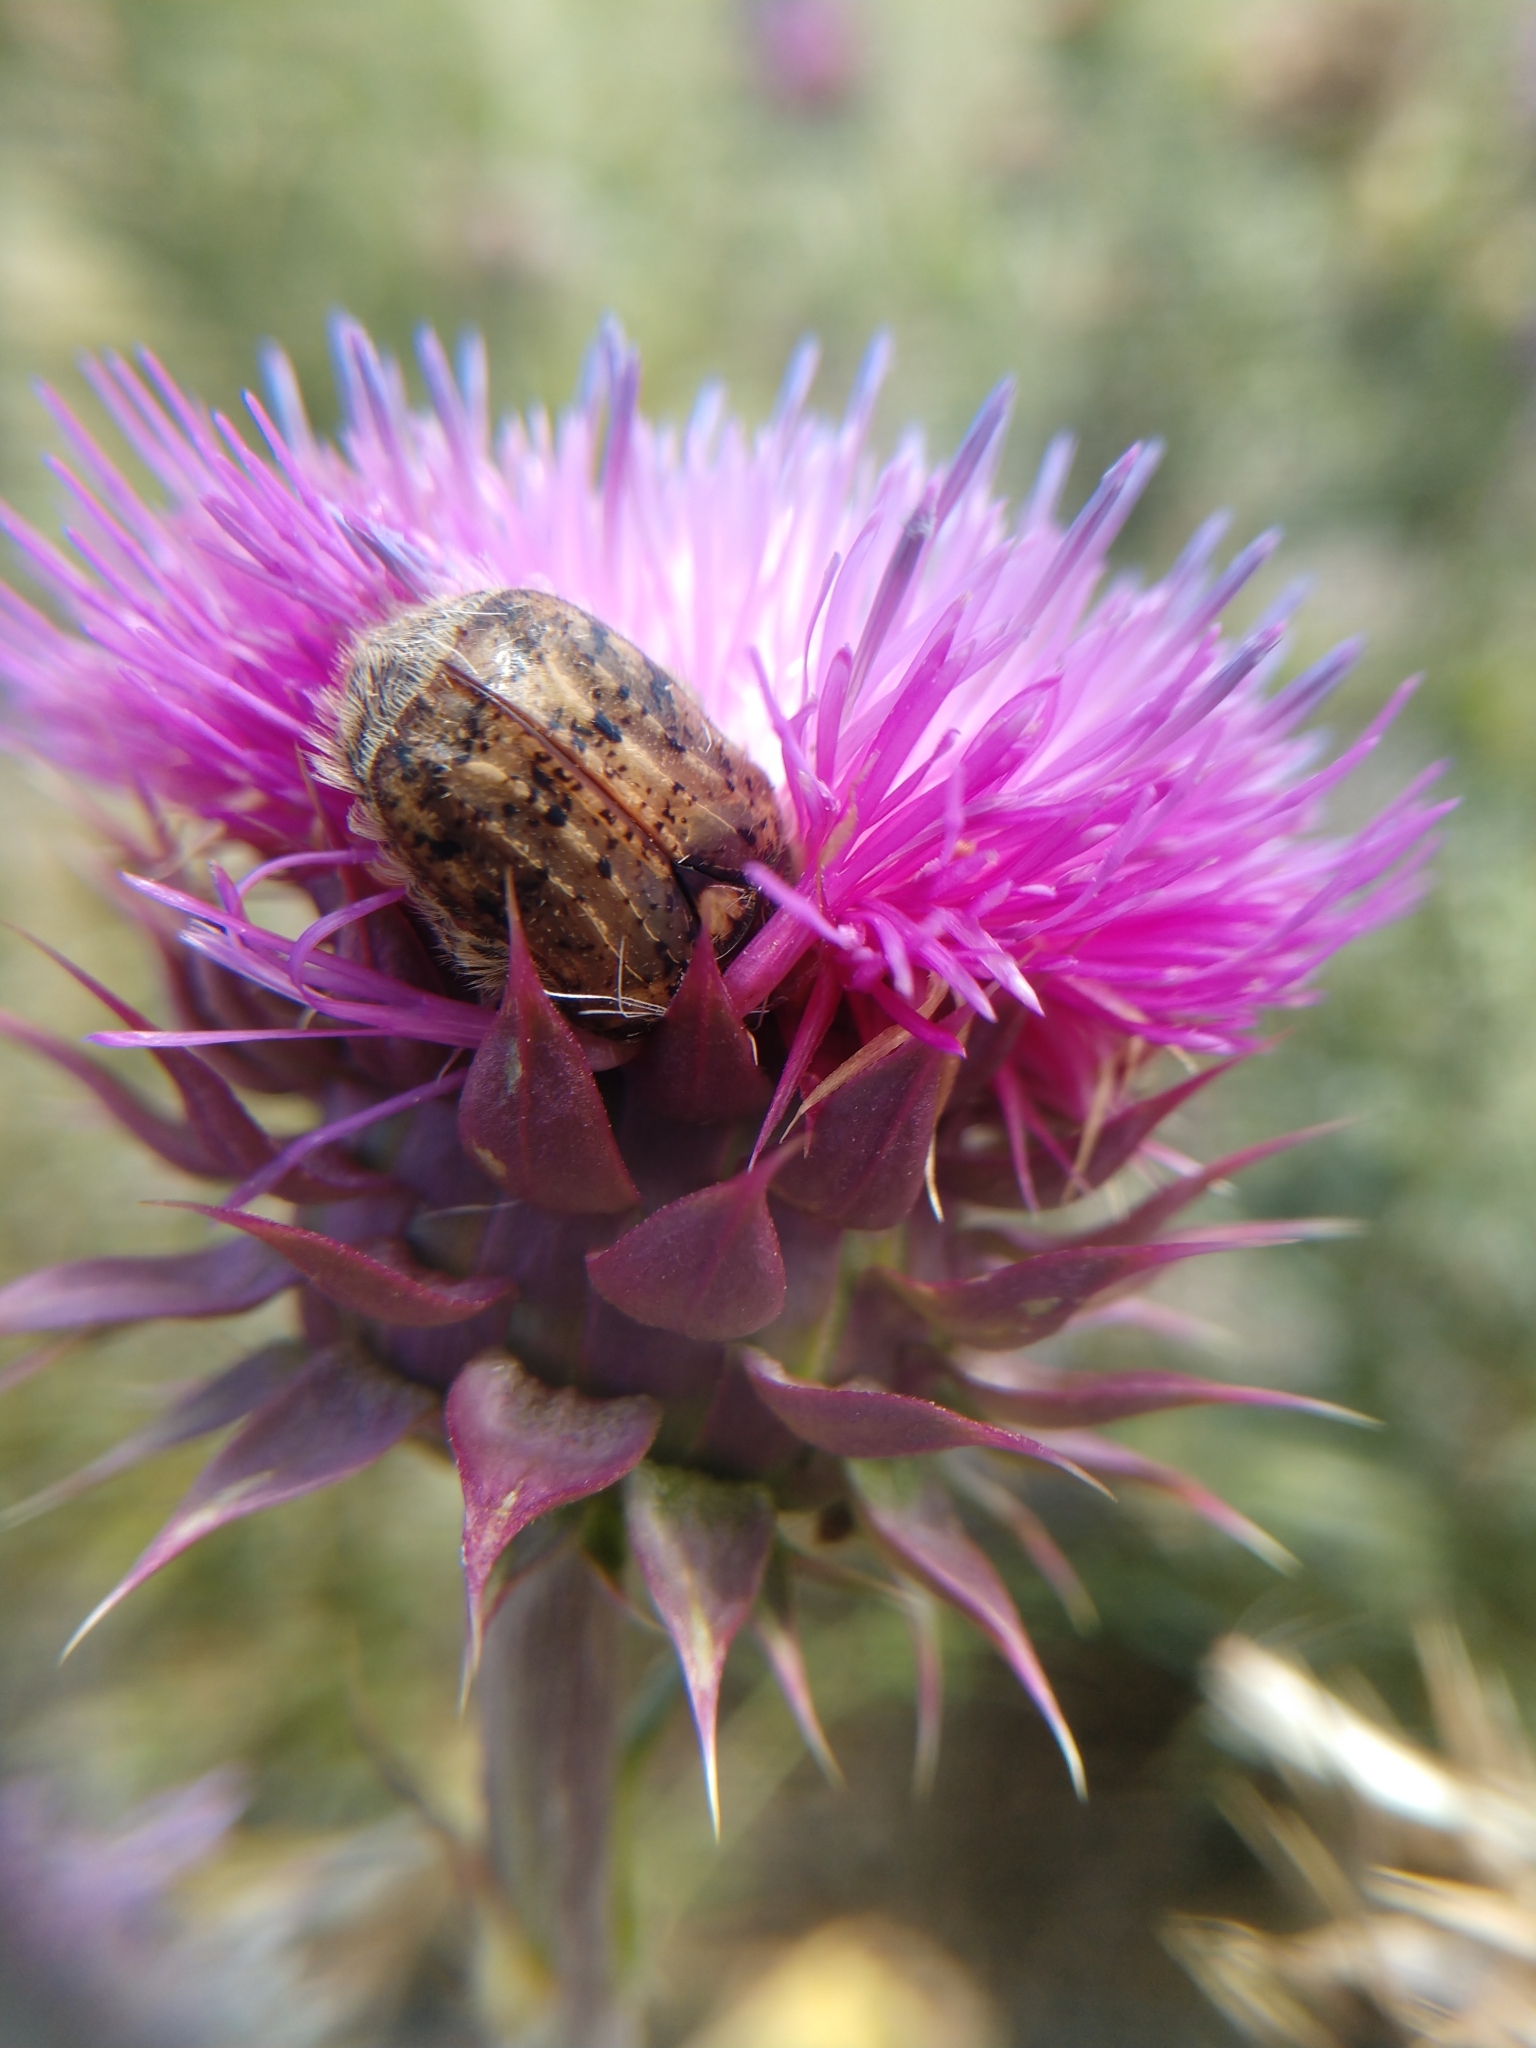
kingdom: Animalia
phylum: Arthropoda
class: Insecta
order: Coleoptera
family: Scarabaeidae
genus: Euphoria
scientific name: Euphoria inda
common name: Bumble flower beetle
